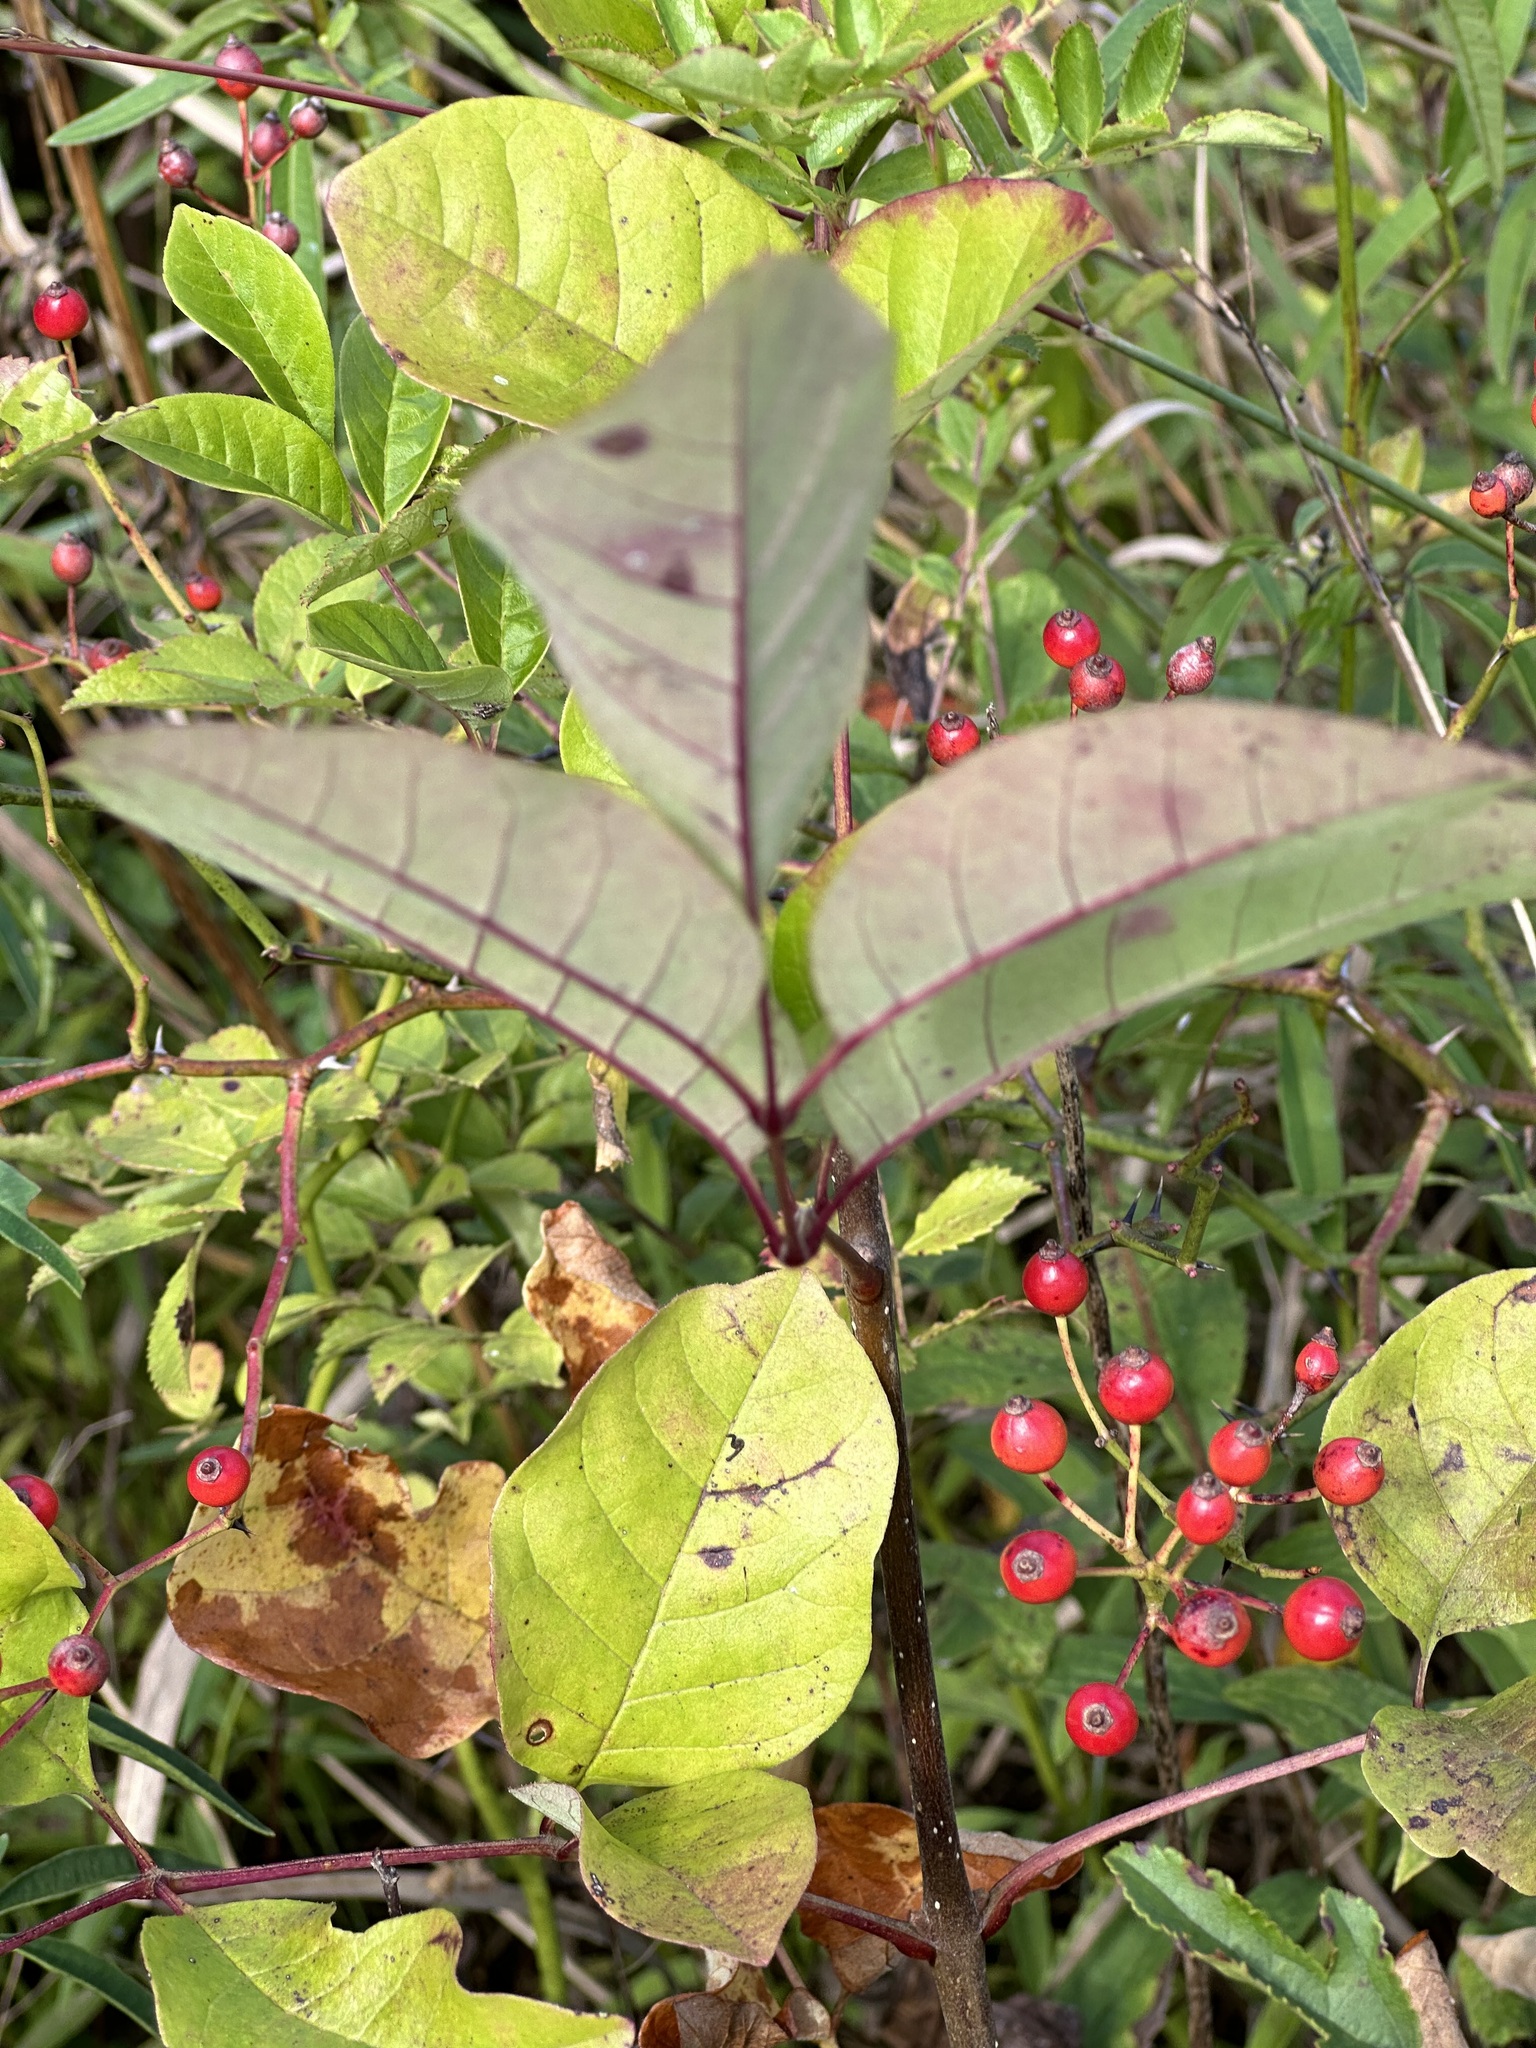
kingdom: Plantae
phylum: Tracheophyta
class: Magnoliopsida
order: Rosales
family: Rosaceae
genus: Rosa
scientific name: Rosa multiflora
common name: Multiflora rose
